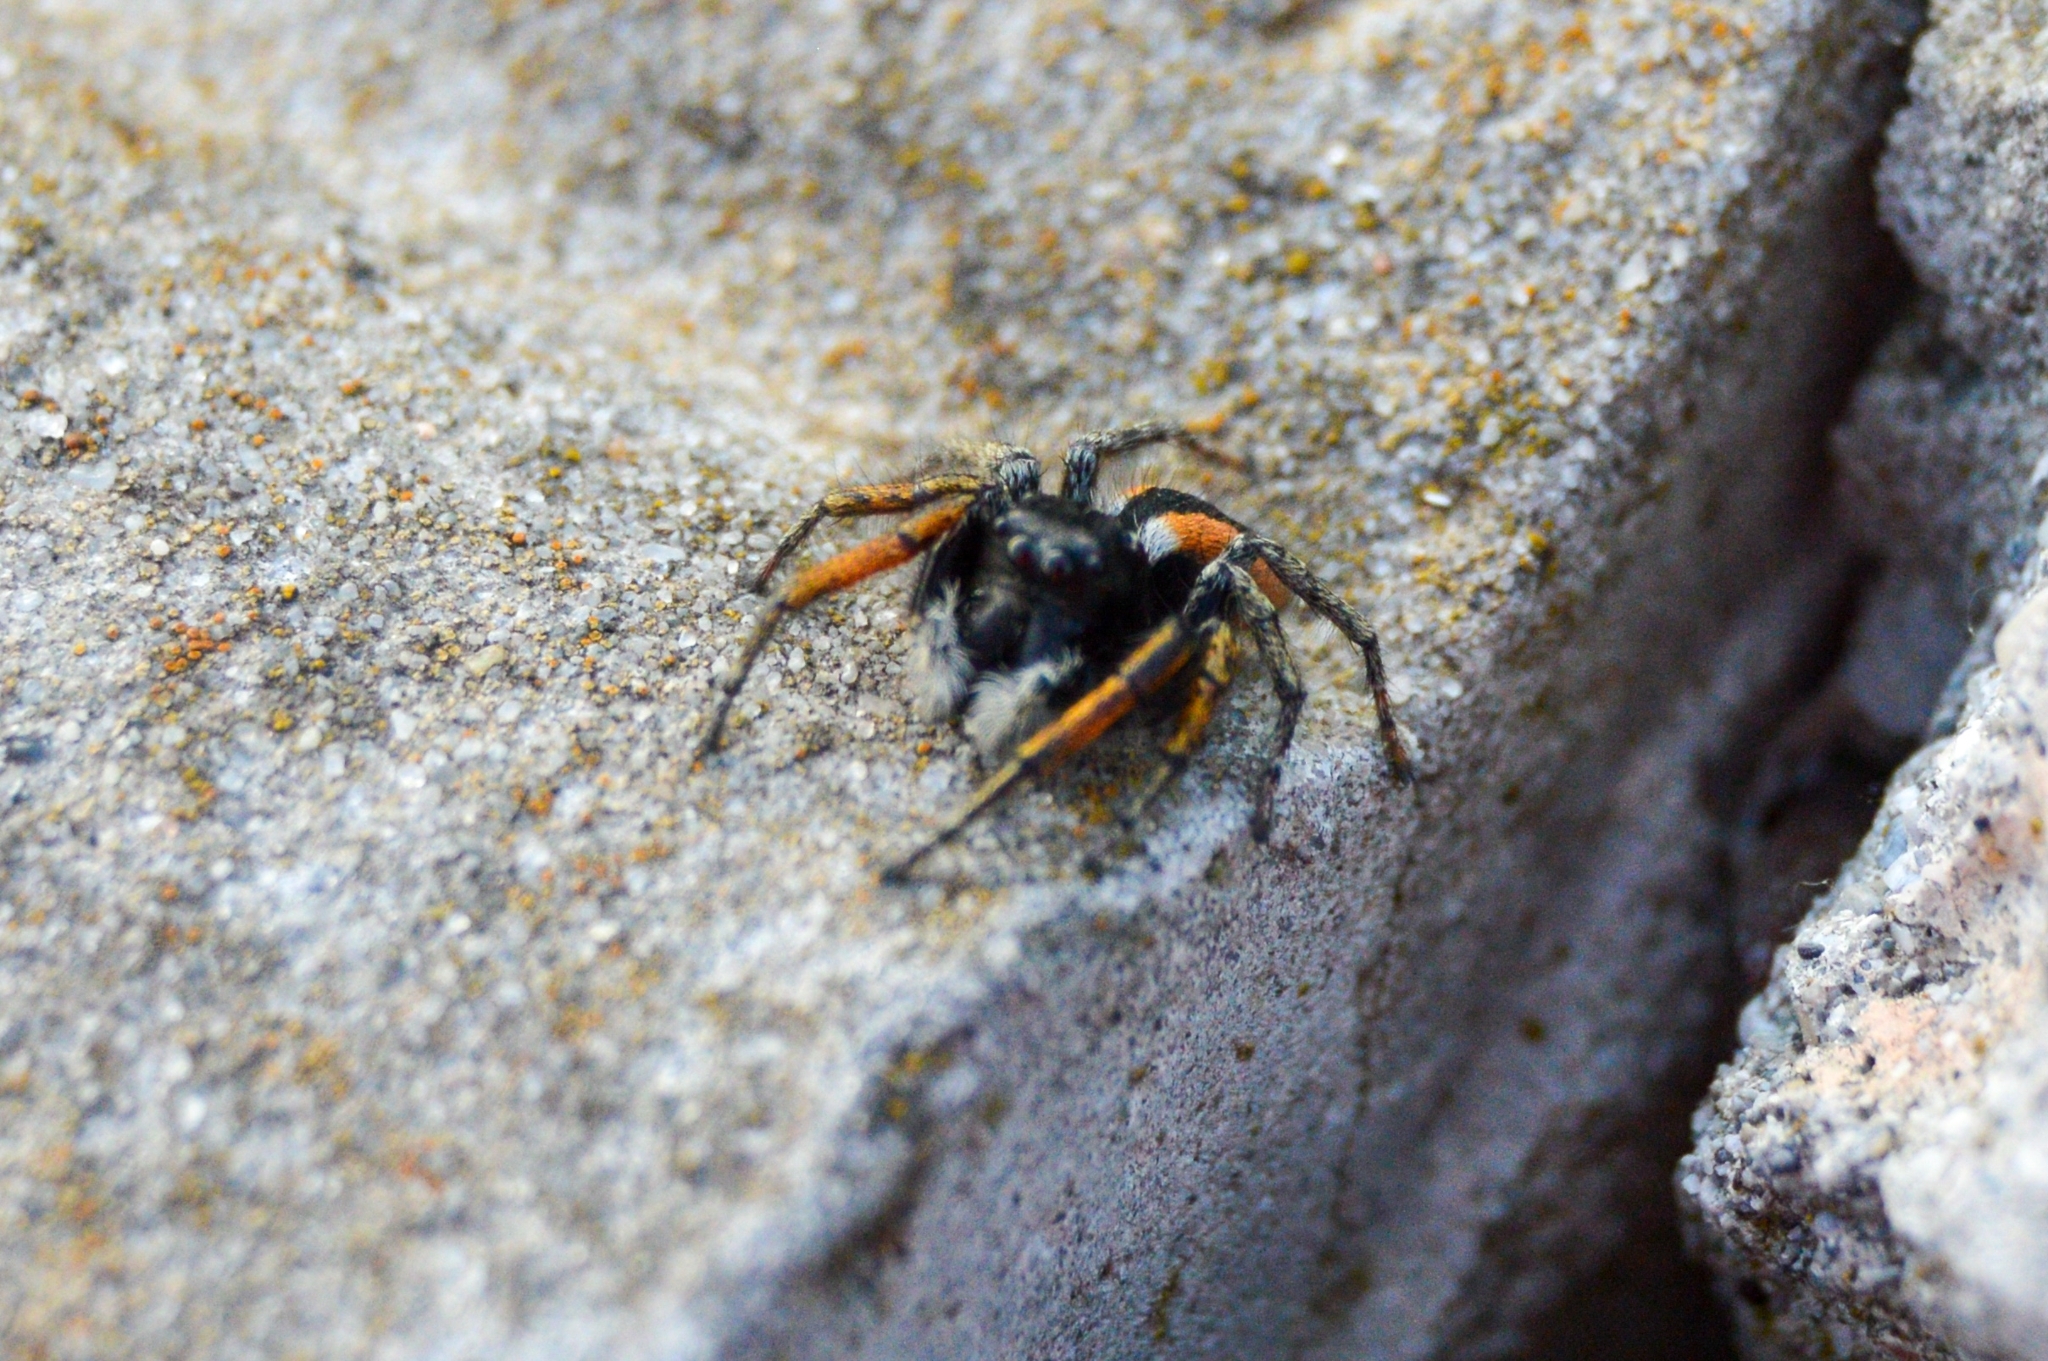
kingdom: Animalia
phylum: Arthropoda
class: Arachnida
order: Araneae
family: Salticidae
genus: Philaeus
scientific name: Philaeus chrysops
